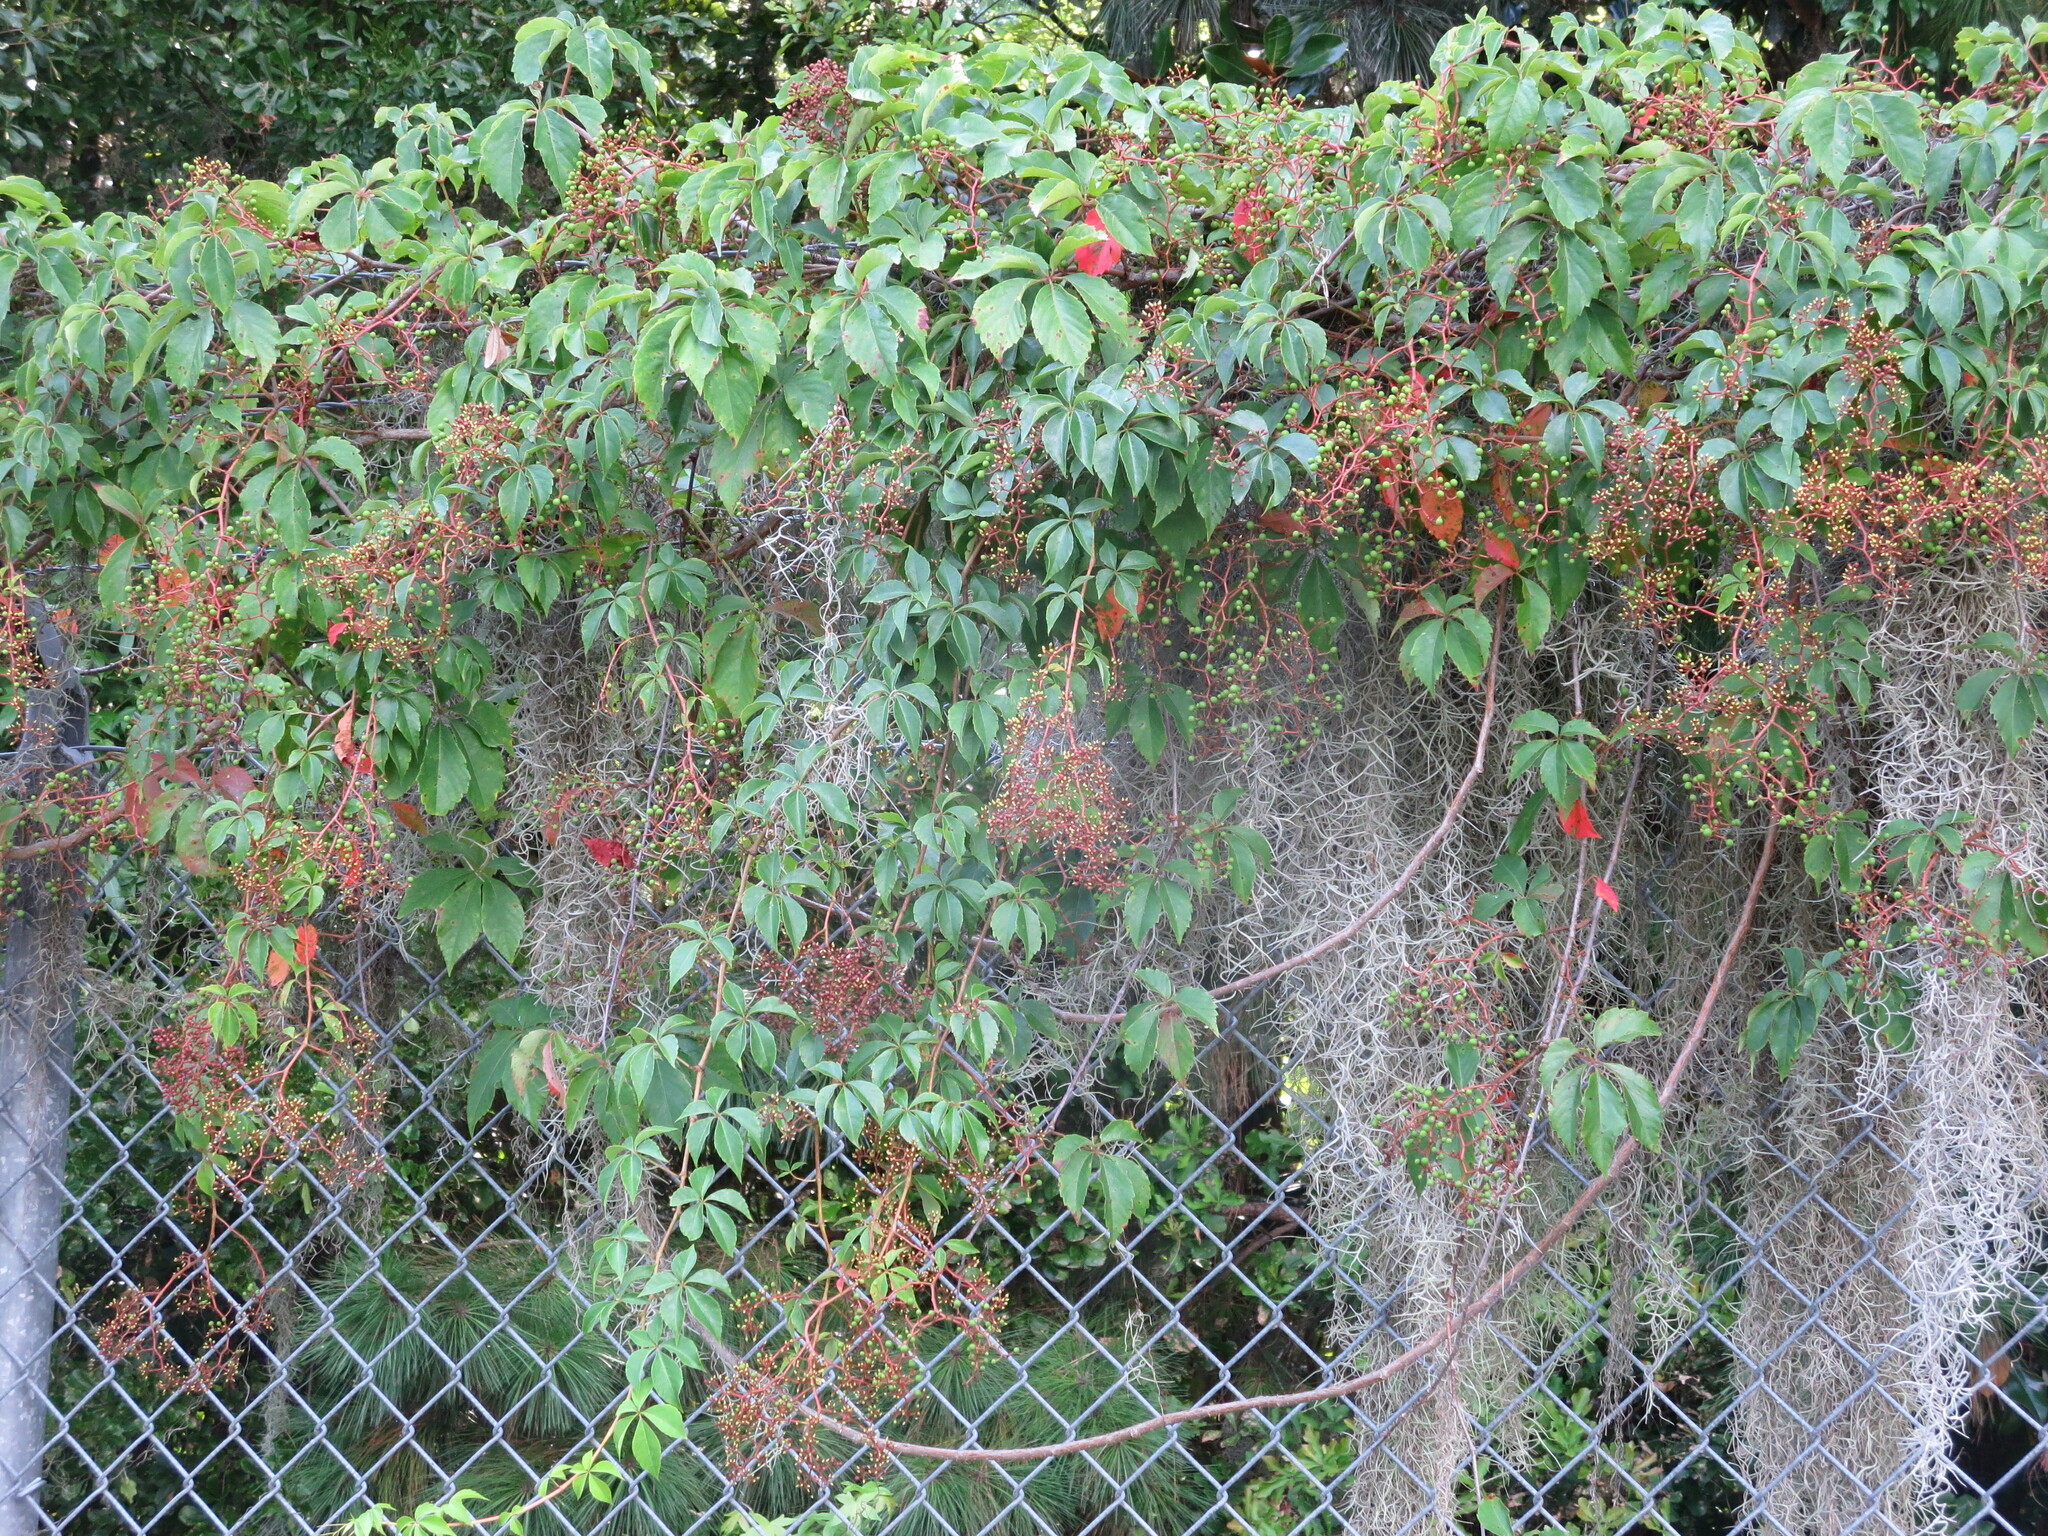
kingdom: Plantae
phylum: Tracheophyta
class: Magnoliopsida
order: Vitales
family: Vitaceae
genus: Parthenocissus
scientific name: Parthenocissus quinquefolia
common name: Virginia-creeper
